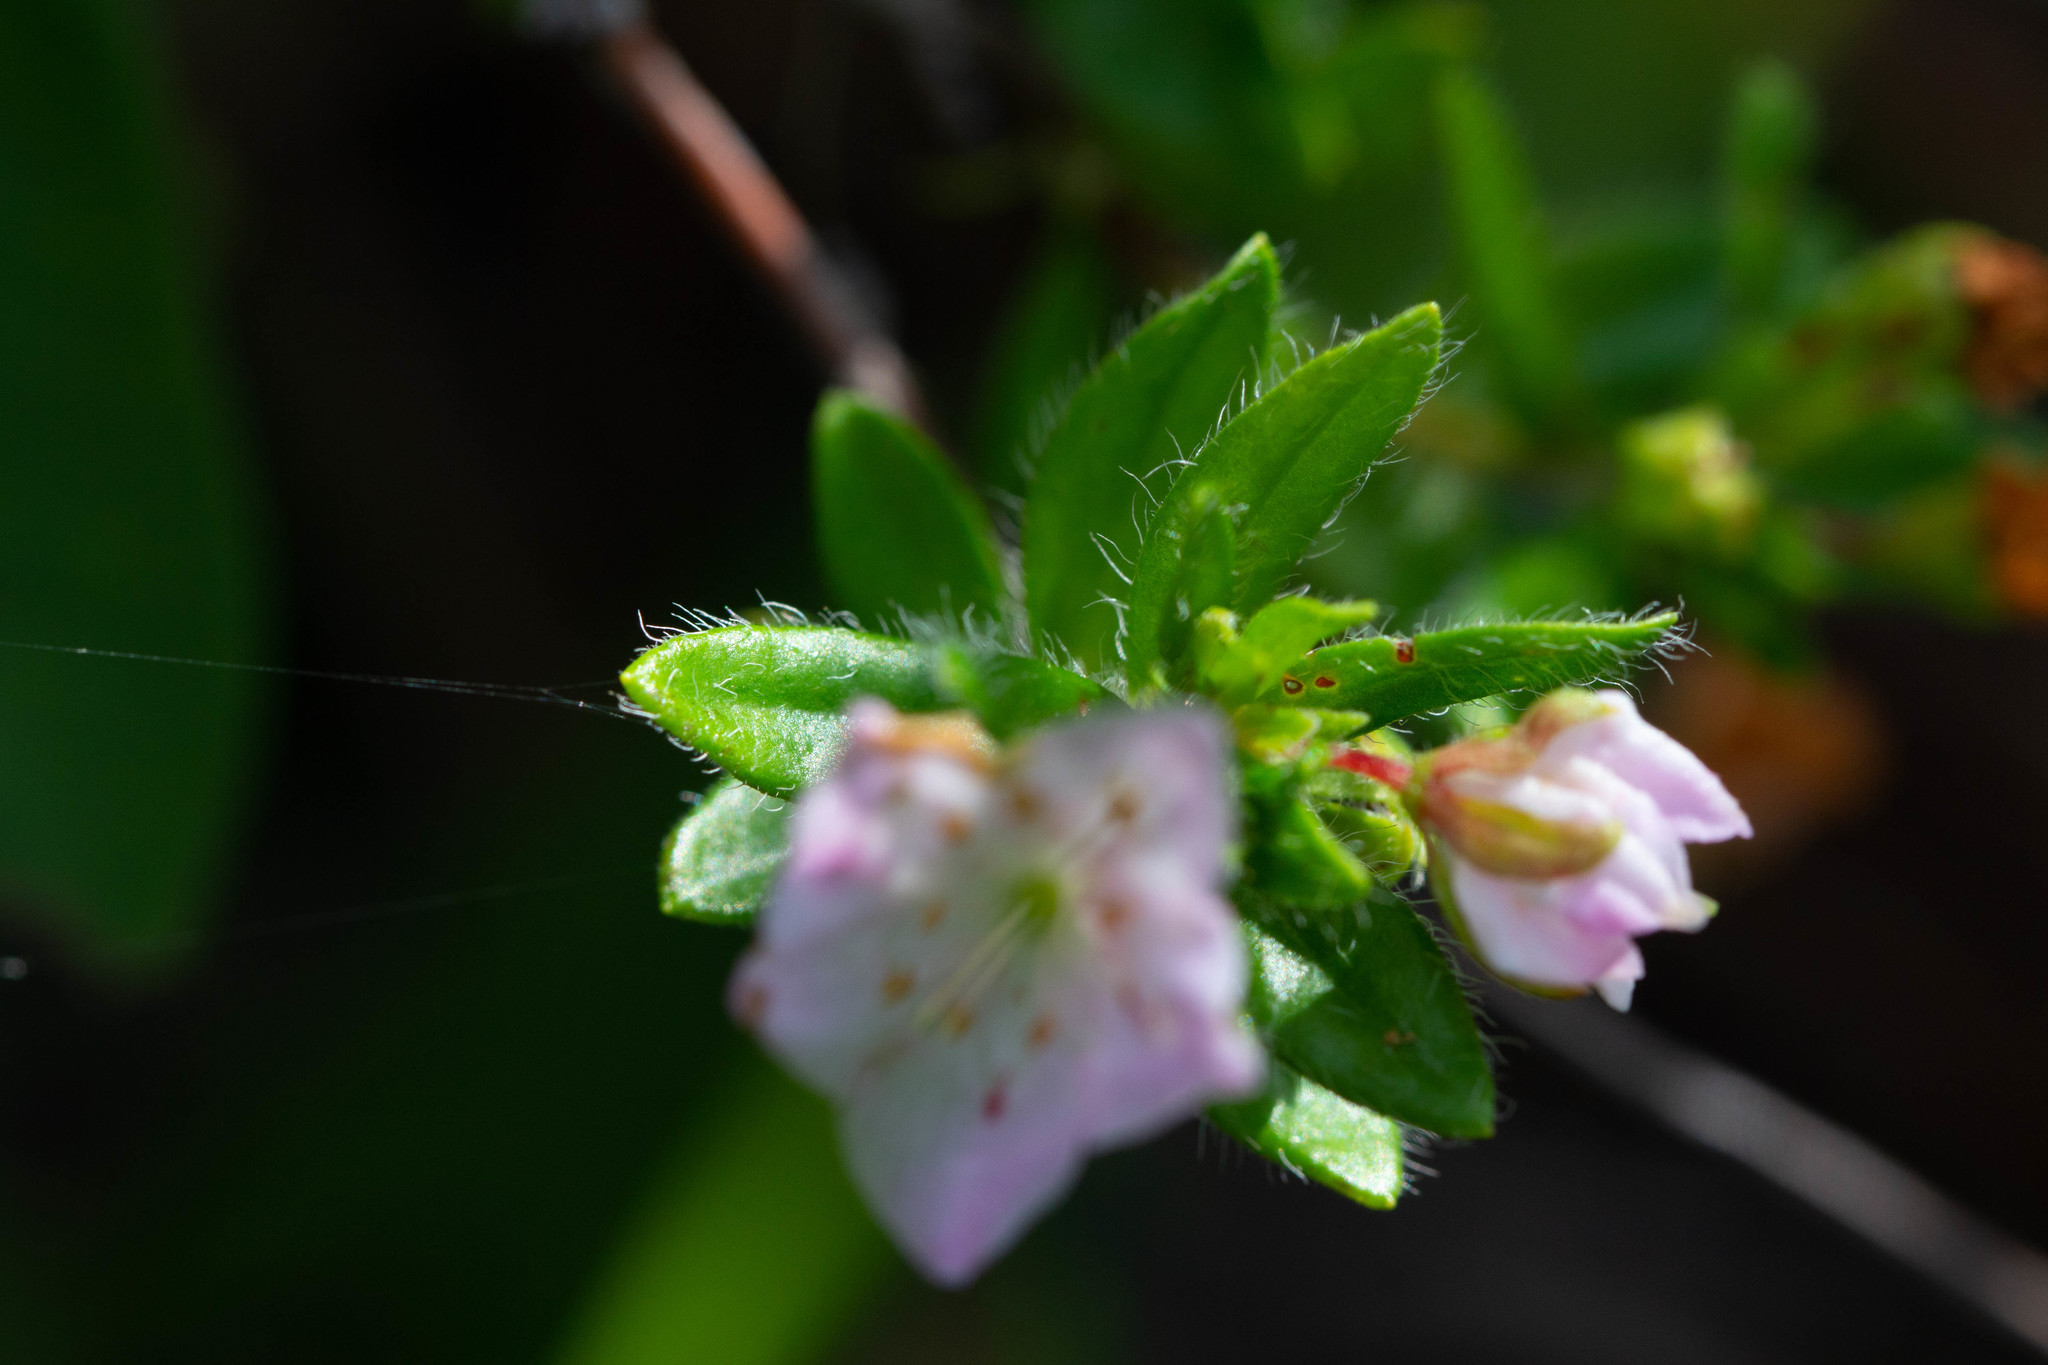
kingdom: Plantae
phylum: Tracheophyta
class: Magnoliopsida
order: Ericales
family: Ericaceae
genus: Kalmia
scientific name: Kalmia hirsuta
